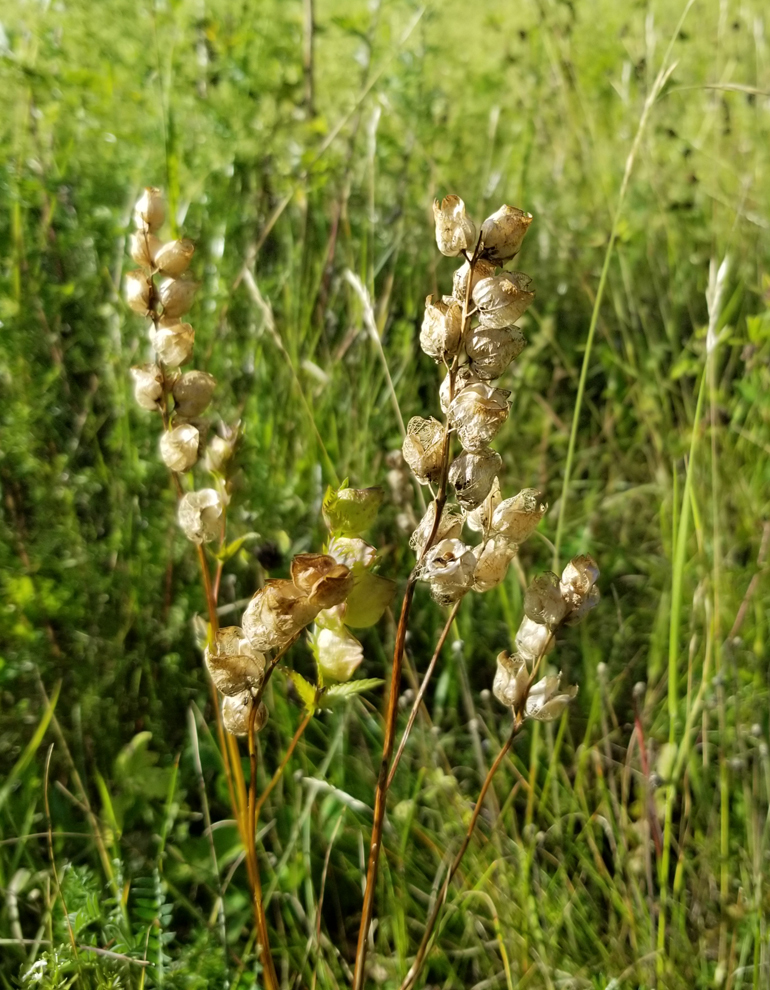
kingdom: Plantae
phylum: Tracheophyta
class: Magnoliopsida
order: Lamiales
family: Orobanchaceae
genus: Rhinanthus
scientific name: Rhinanthus minor
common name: Yellow-rattle
